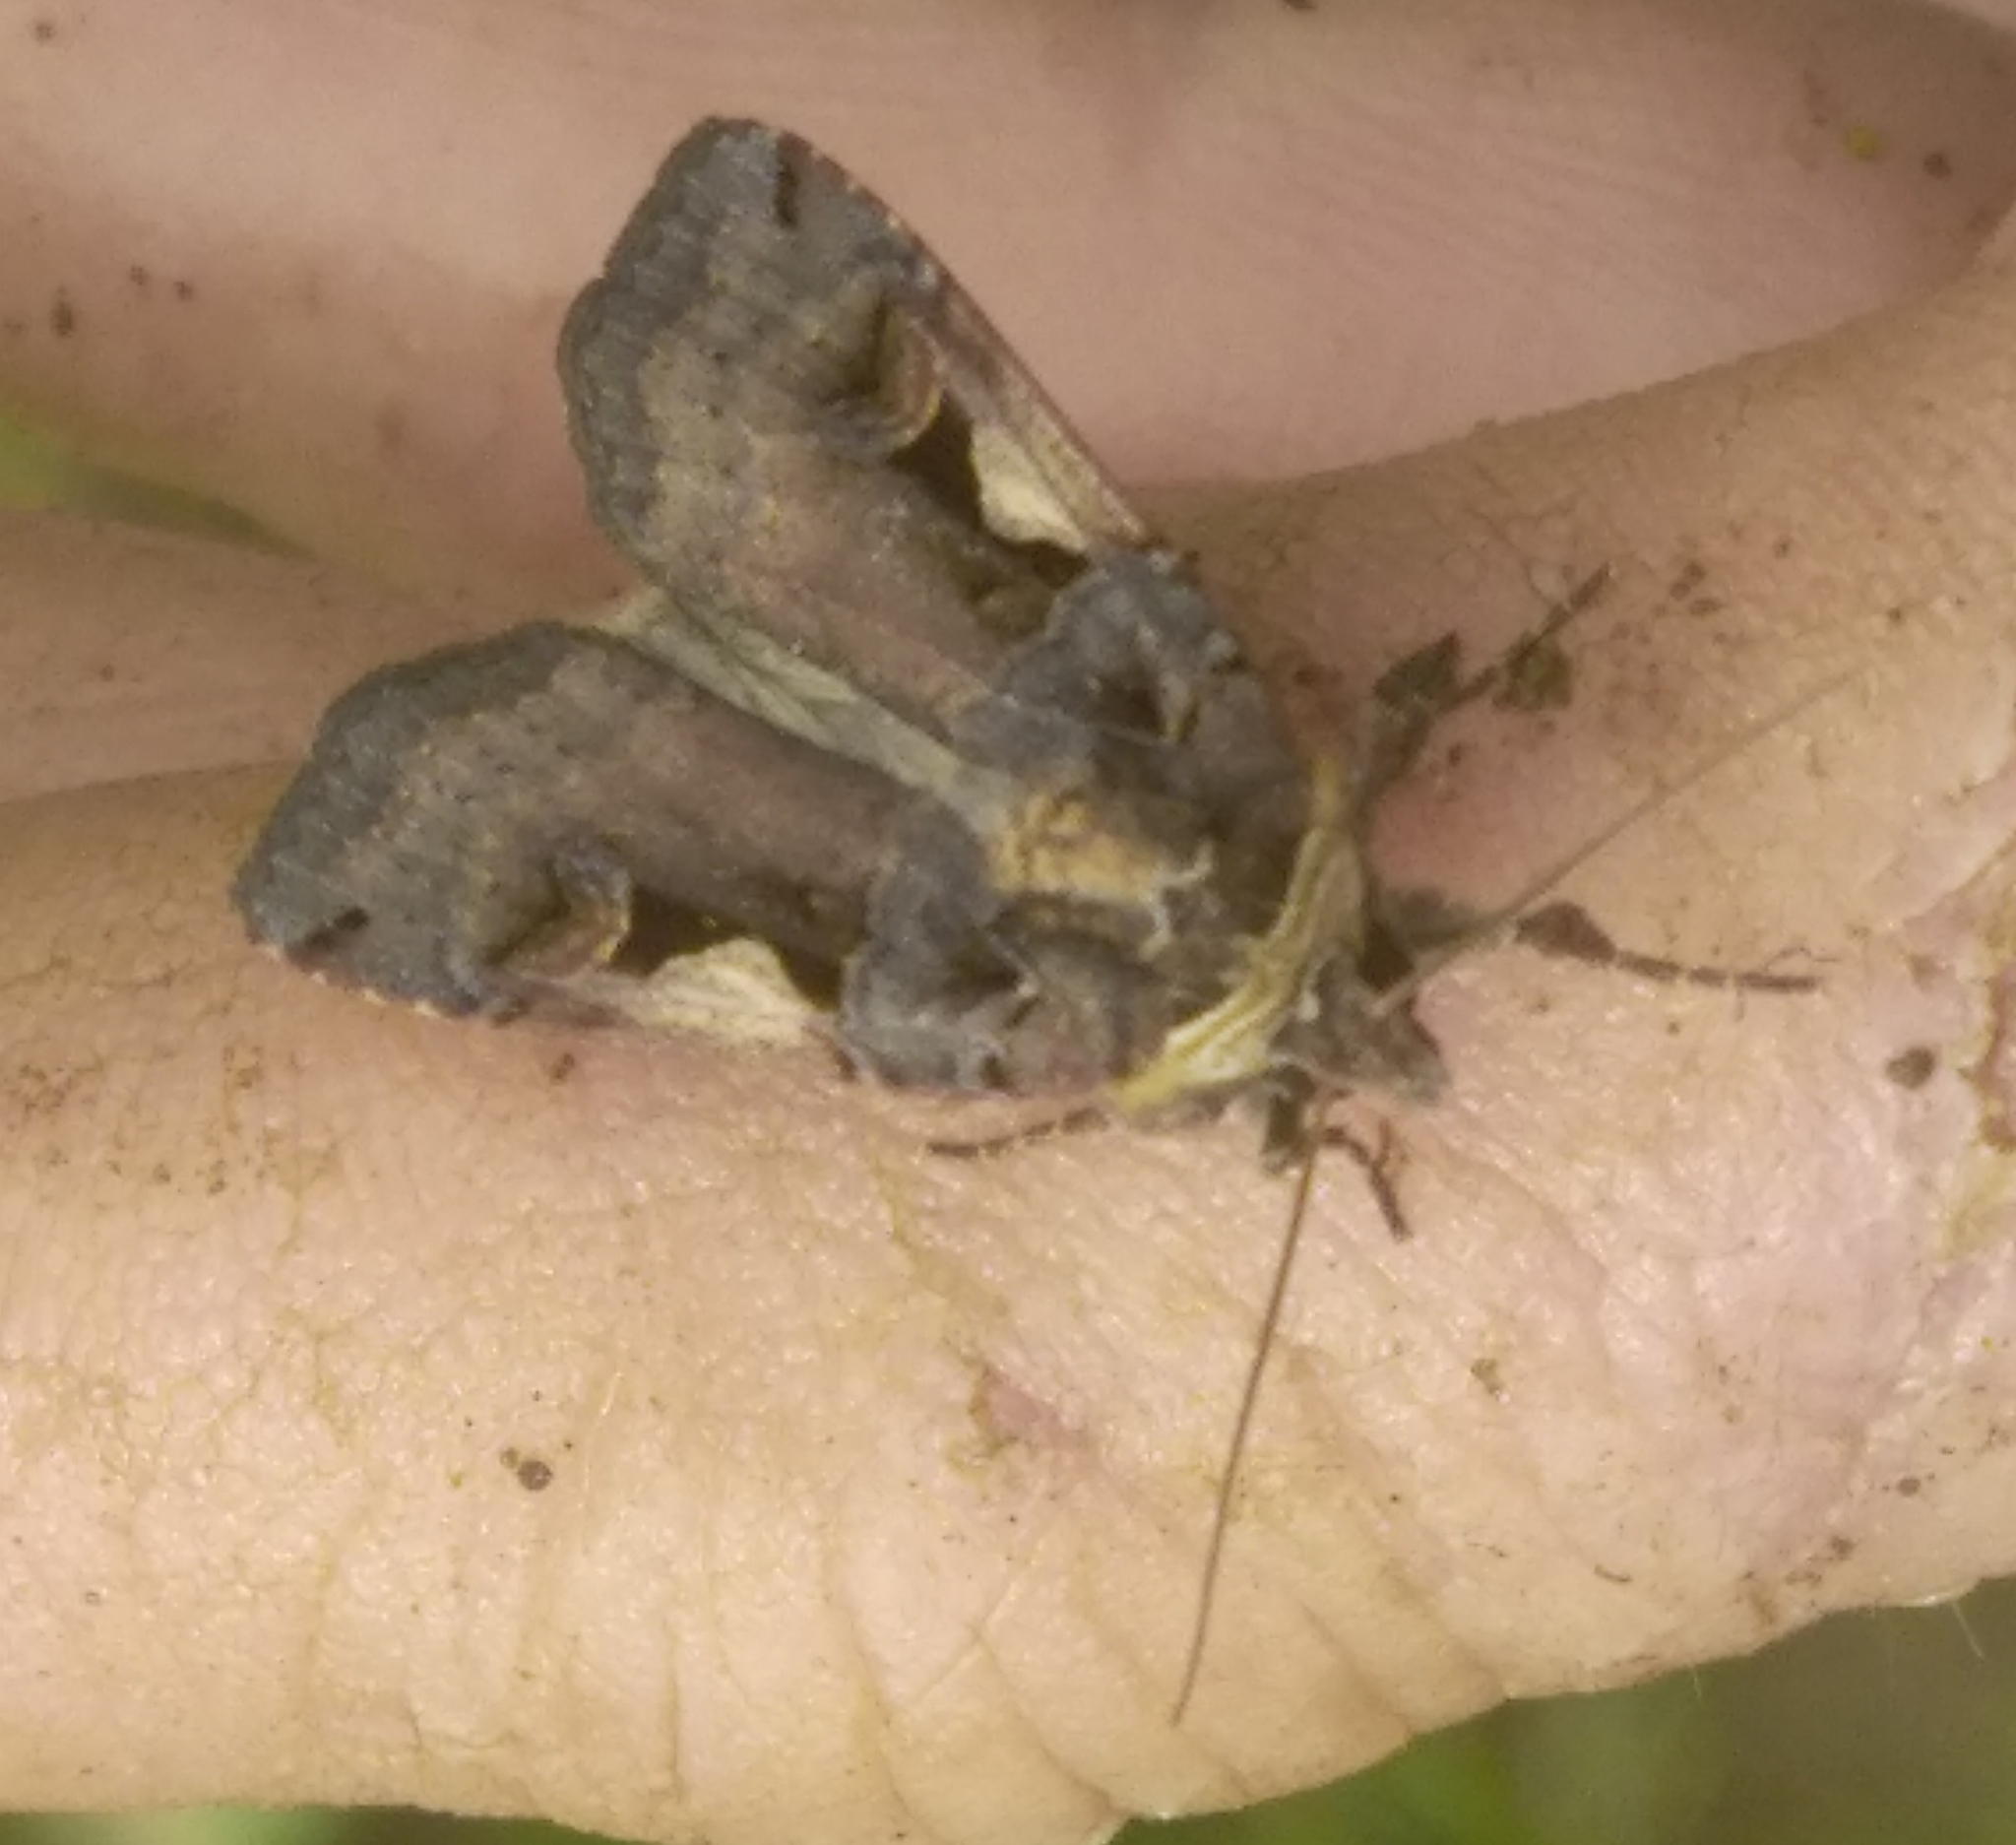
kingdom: Animalia
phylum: Arthropoda
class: Insecta
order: Lepidoptera
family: Noctuidae
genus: Xestia
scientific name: Xestia c-nigrum
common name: Setaceous hebrew character
